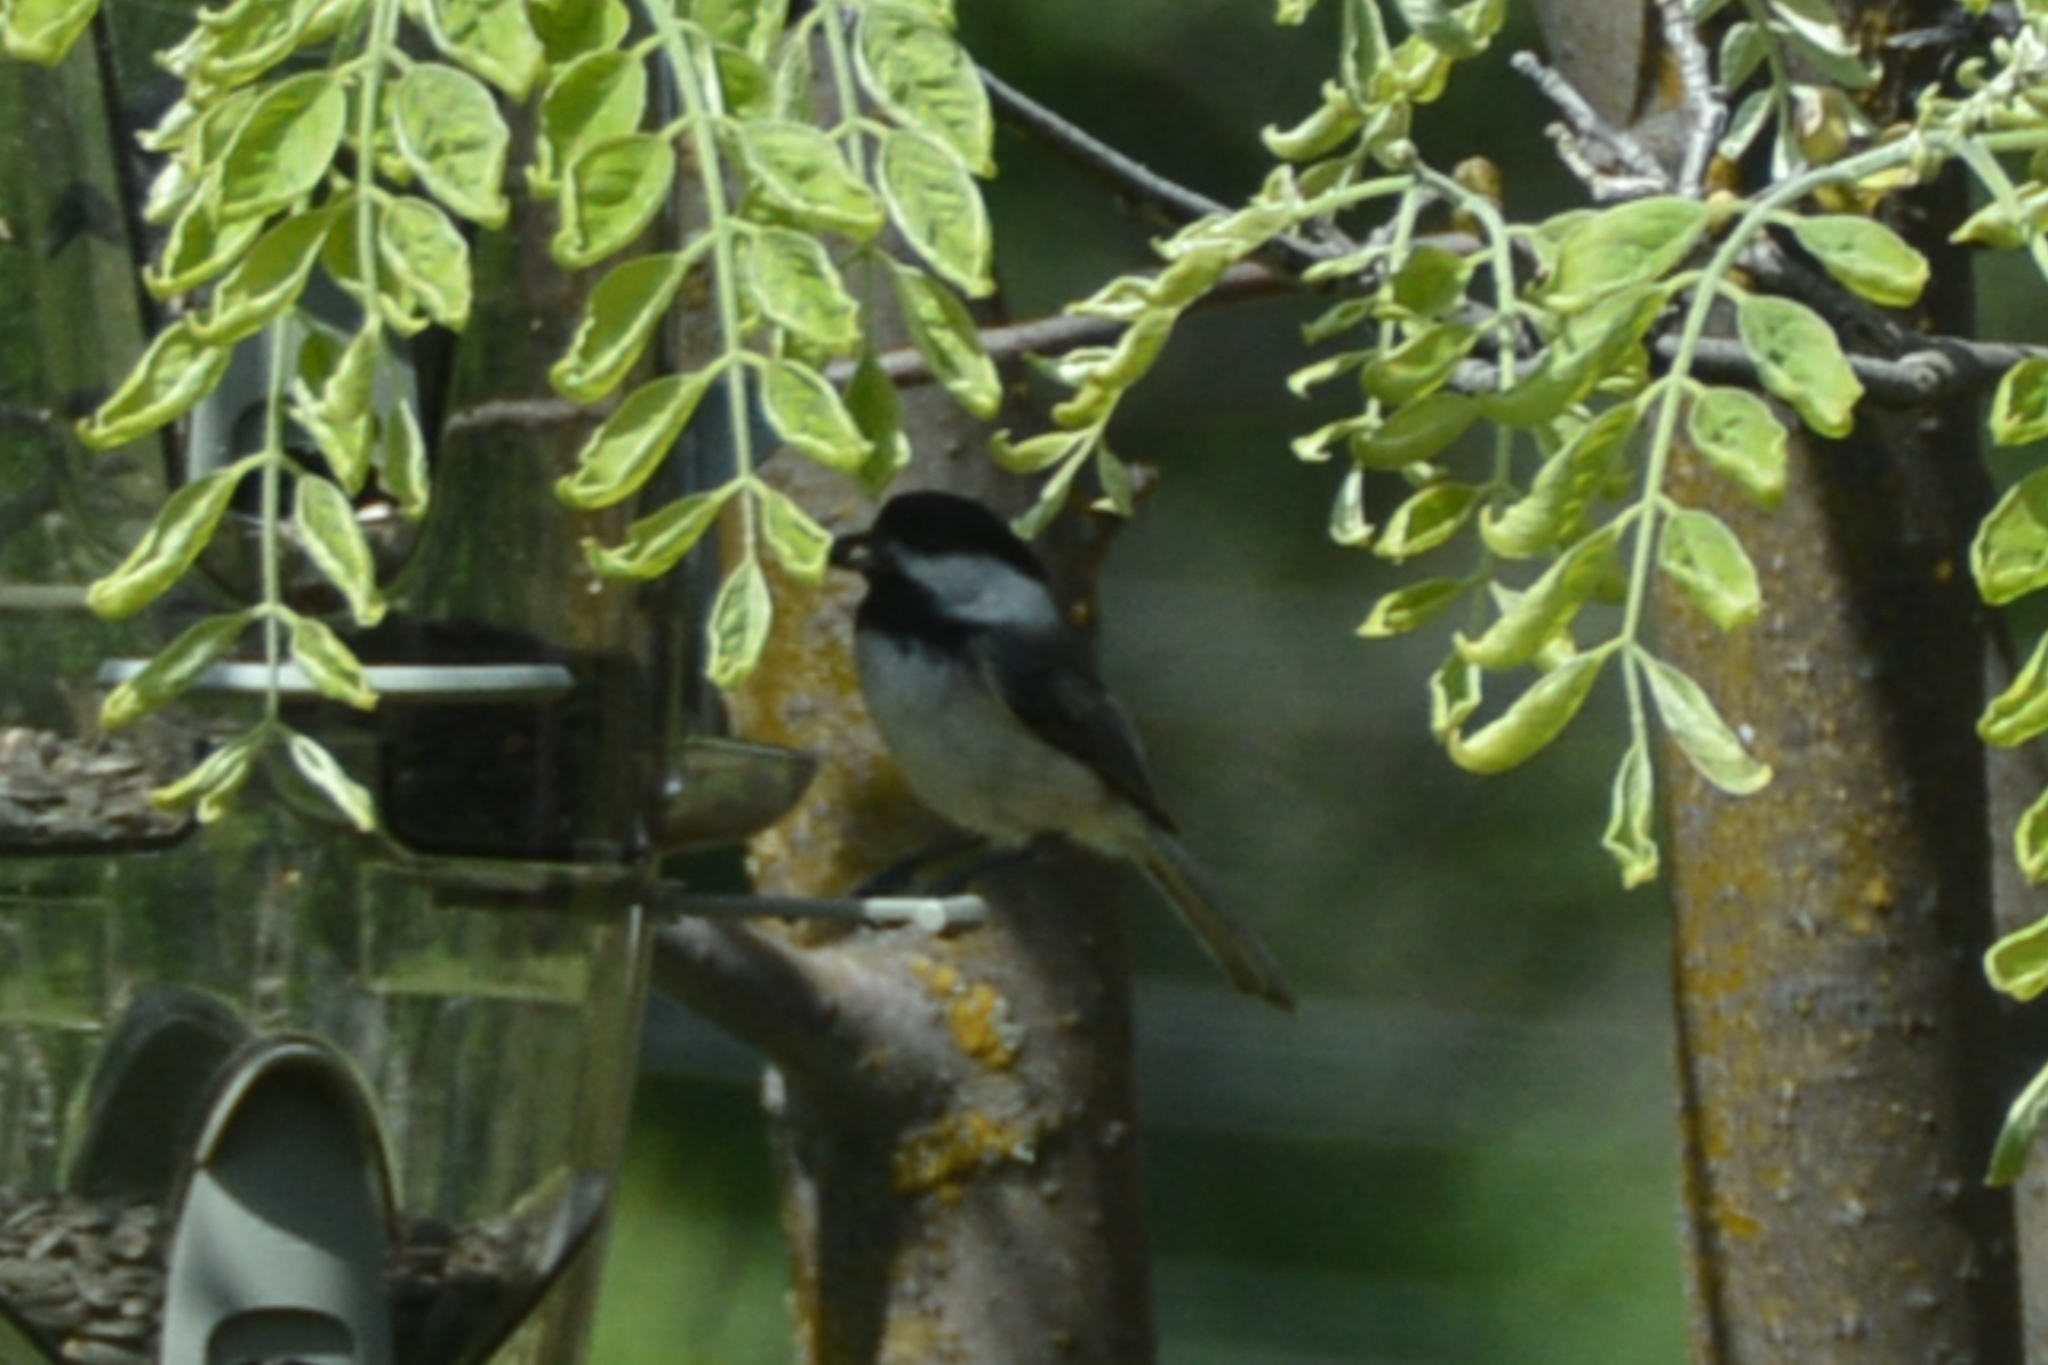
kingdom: Animalia
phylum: Chordata
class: Aves
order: Passeriformes
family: Paridae
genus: Poecile
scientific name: Poecile atricapillus
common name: Black-capped chickadee
